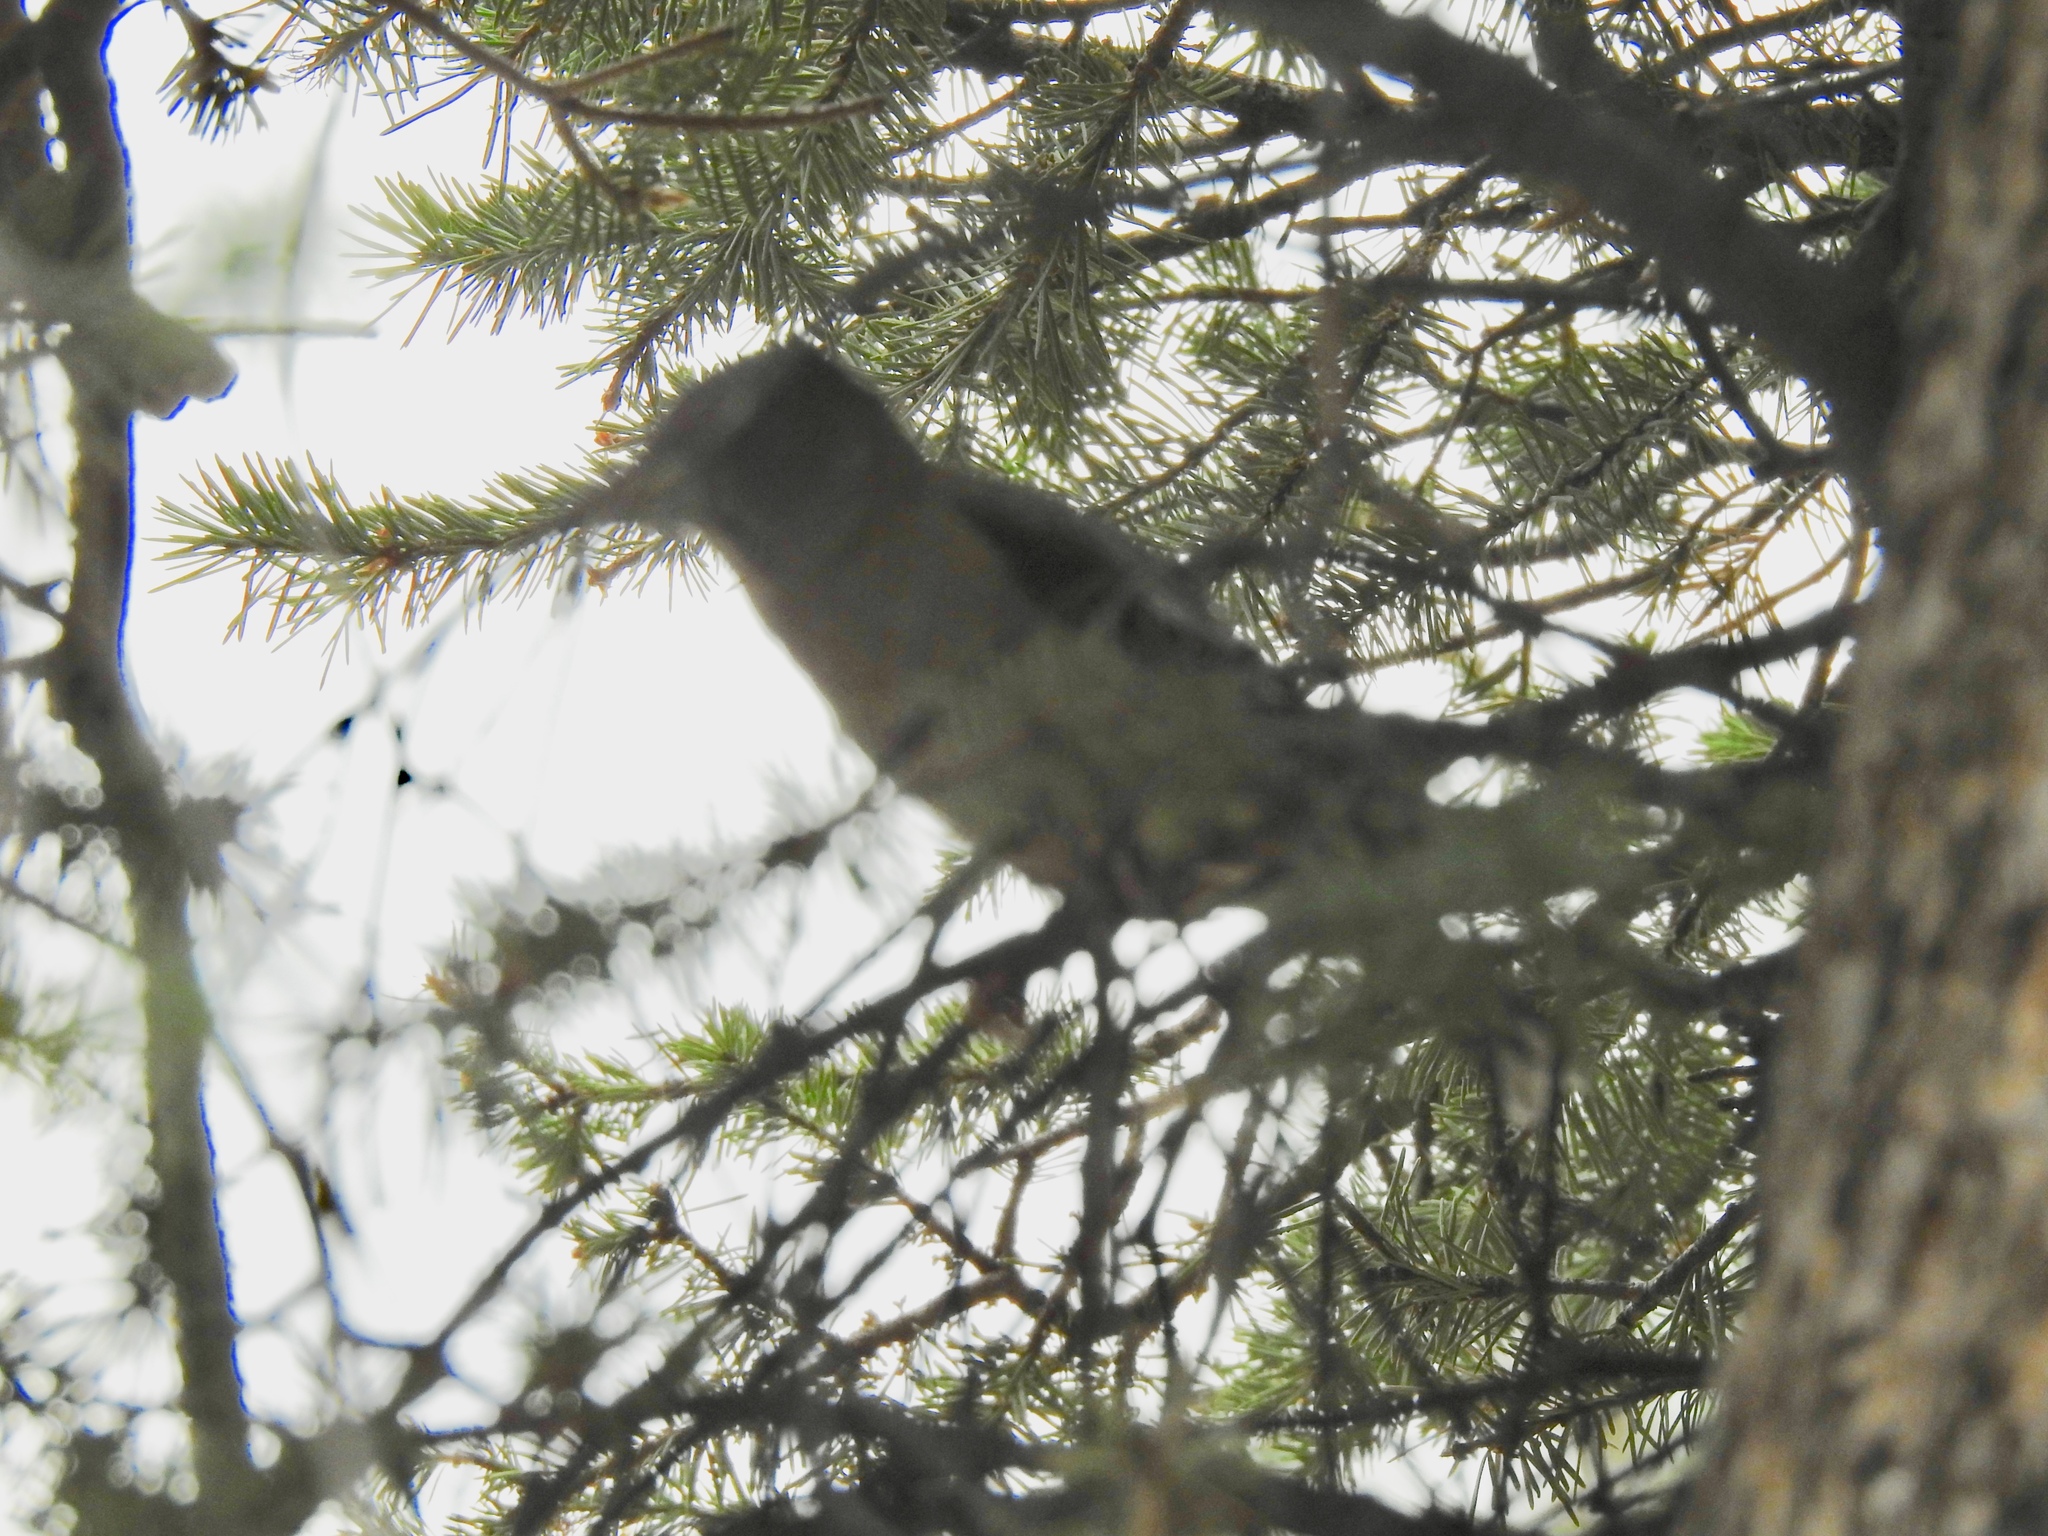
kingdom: Animalia
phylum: Chordata
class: Aves
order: Passeriformes
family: Fringillidae
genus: Hesperiphona
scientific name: Hesperiphona vespertina
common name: Evening grosbeak
